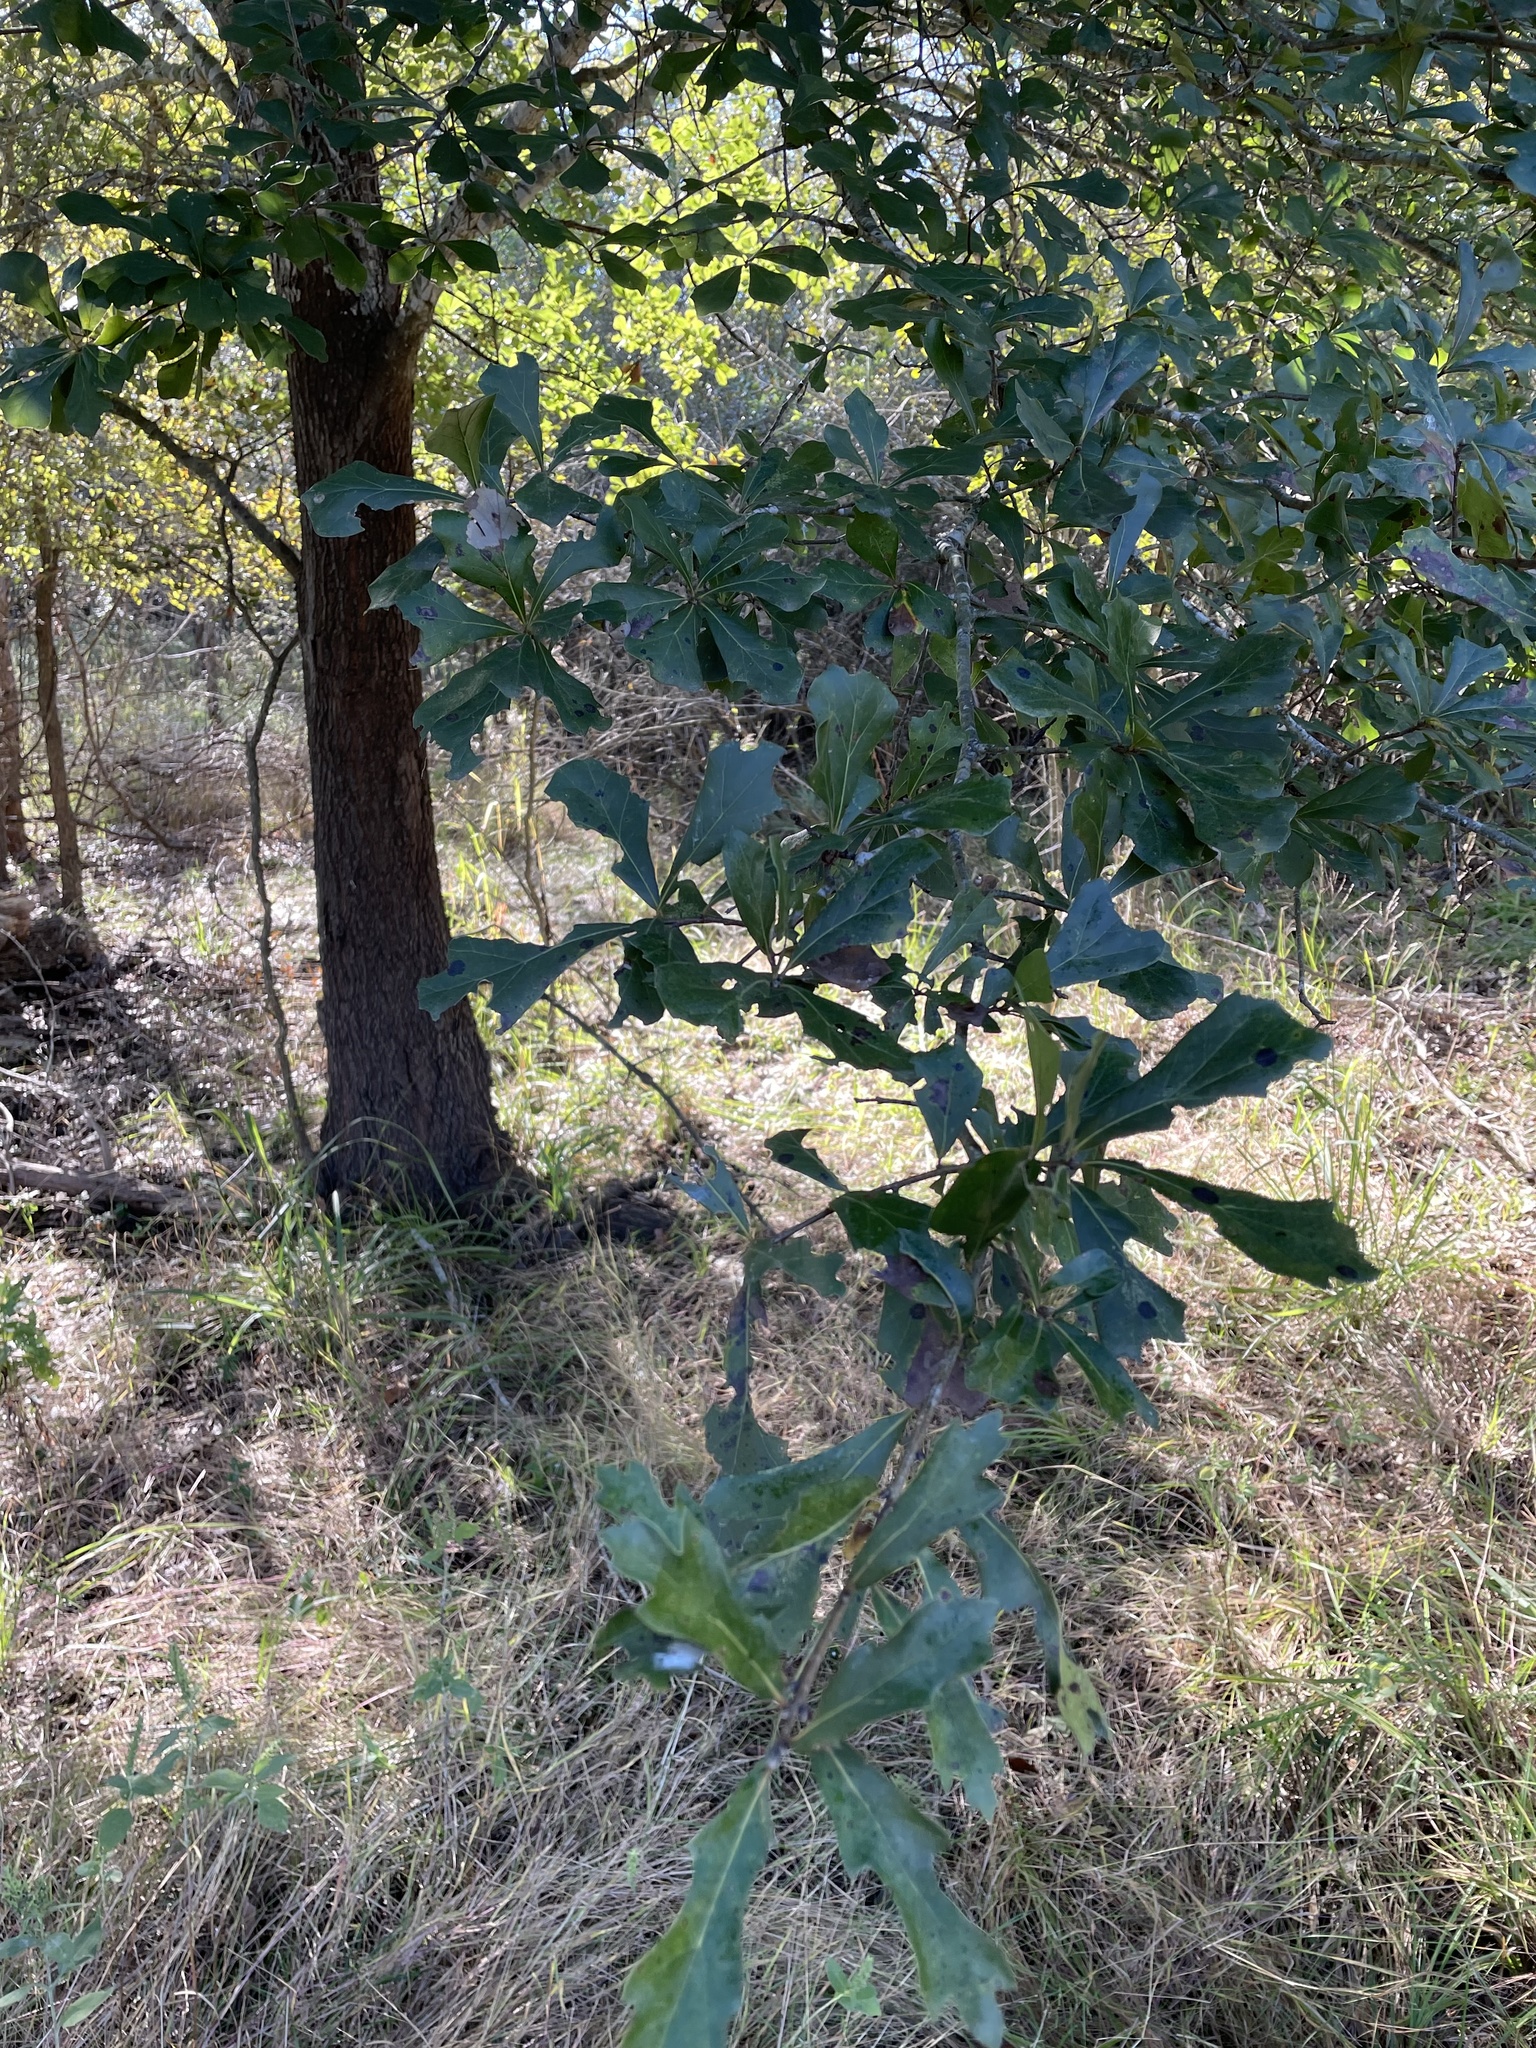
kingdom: Plantae
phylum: Tracheophyta
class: Magnoliopsida
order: Fagales
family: Fagaceae
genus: Quercus
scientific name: Quercus nigra
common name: Water oak
